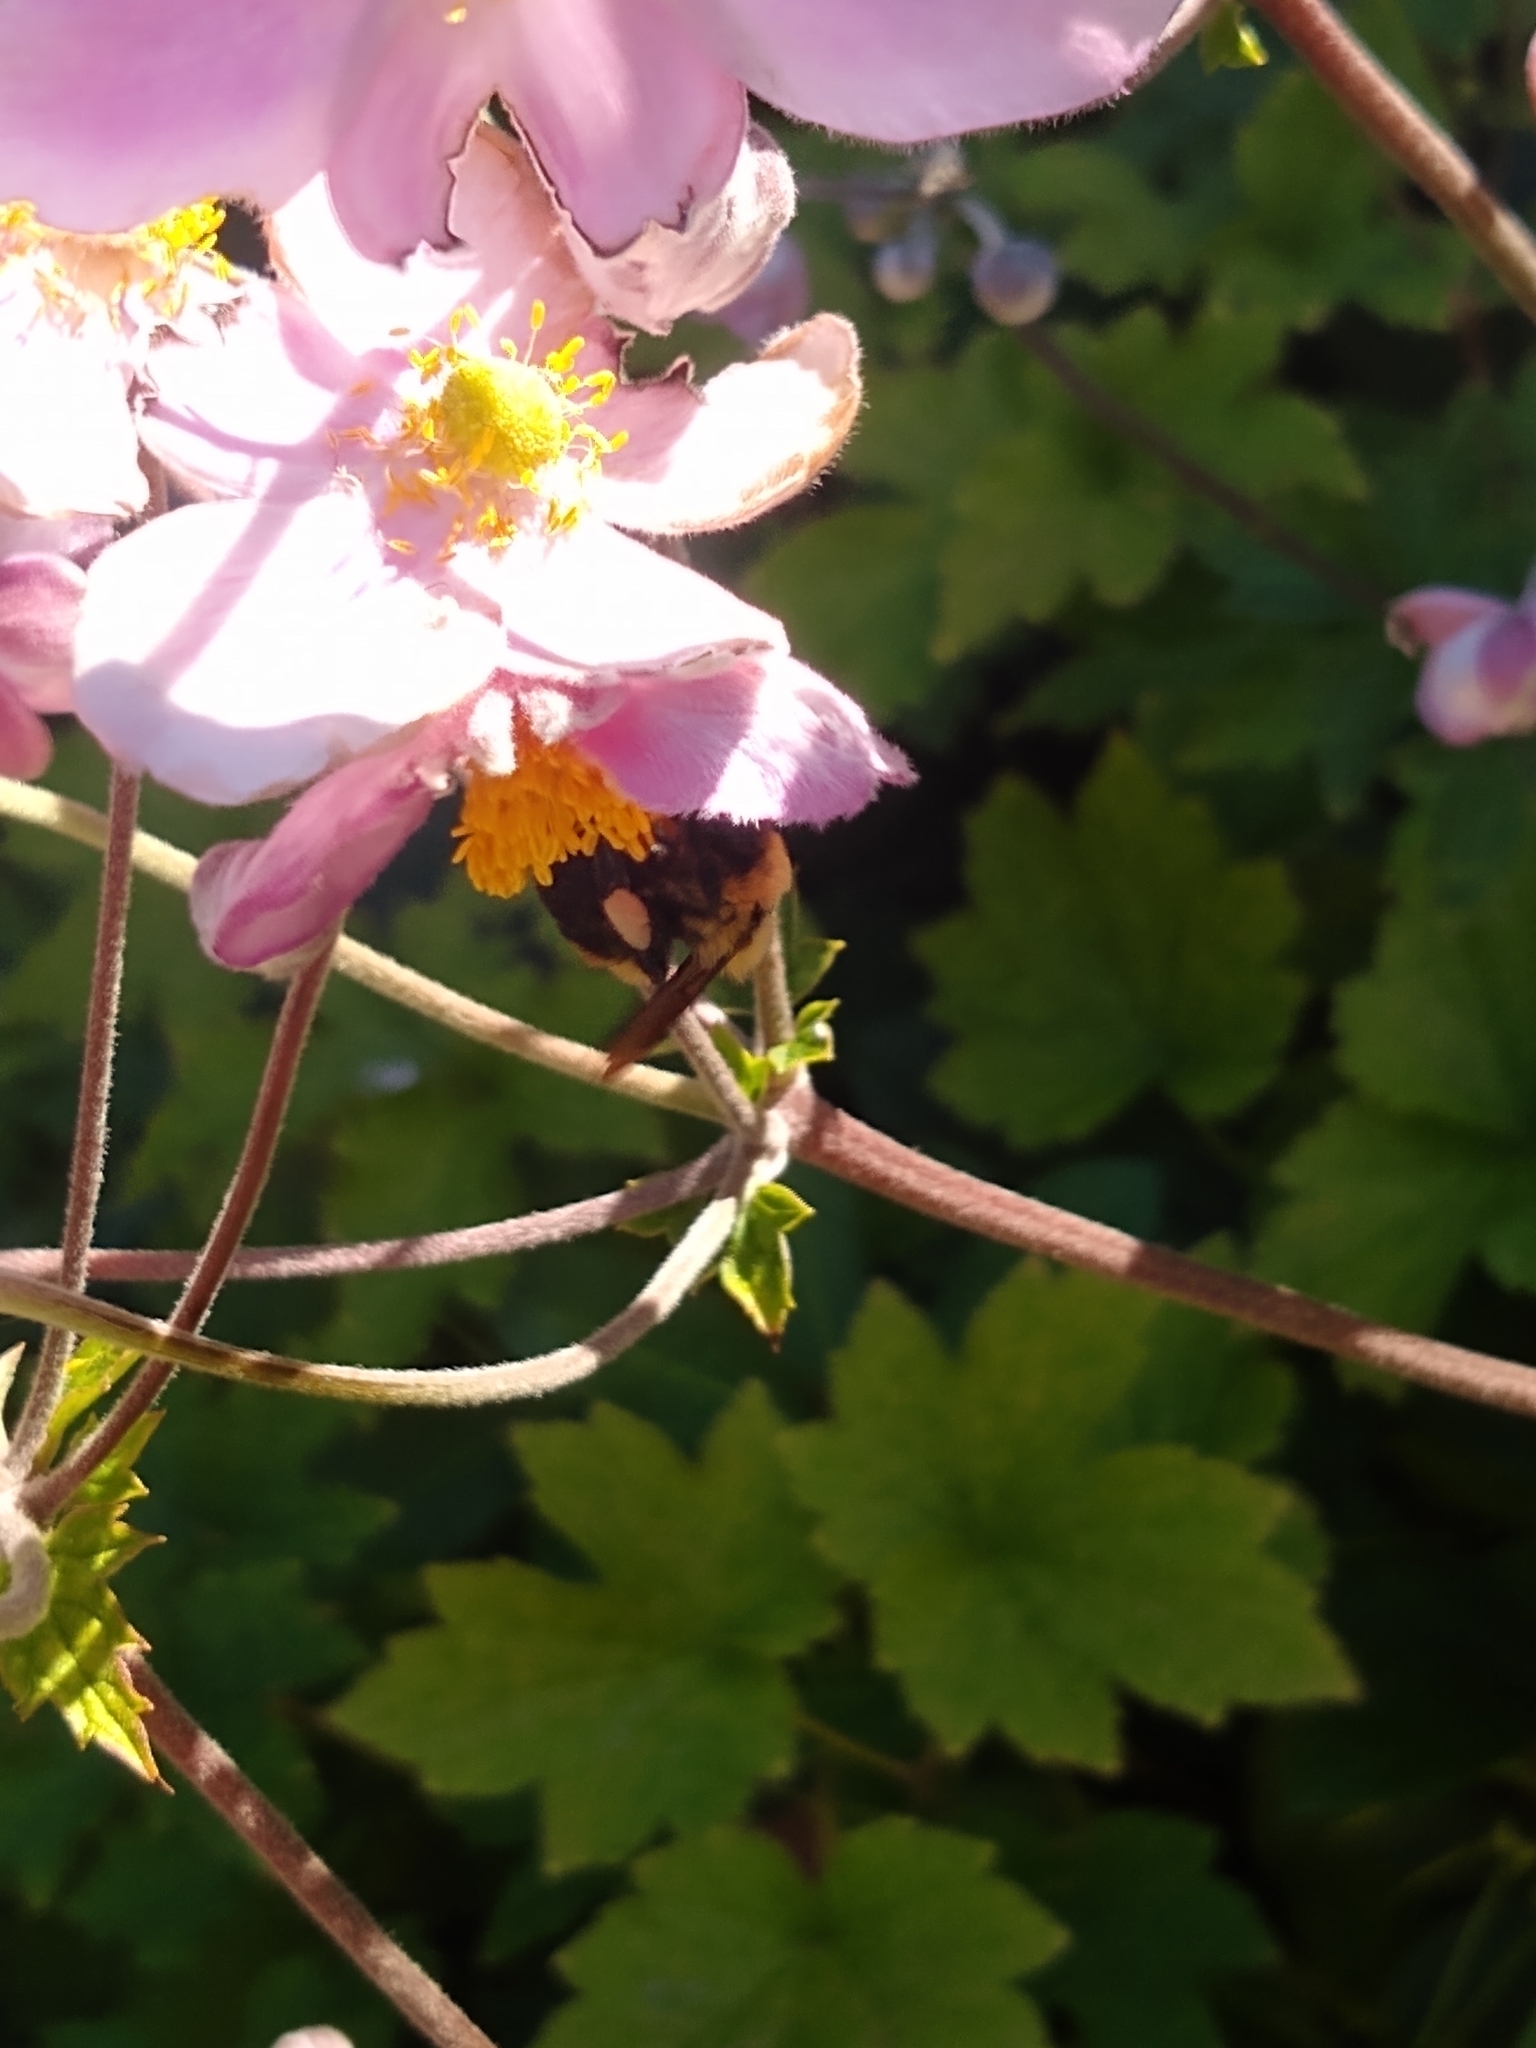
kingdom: Animalia
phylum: Arthropoda
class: Insecta
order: Hymenoptera
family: Apidae
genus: Bombus
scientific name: Bombus griseocollis
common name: Brown-belted bumble bee
